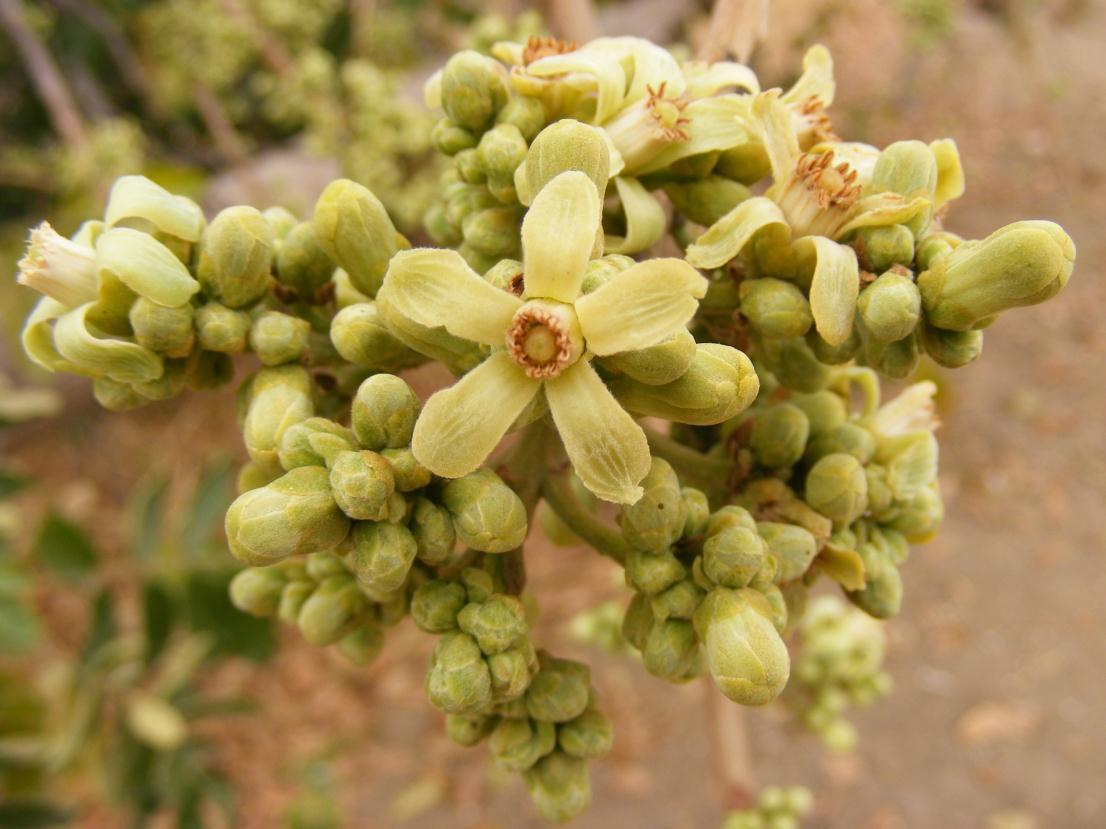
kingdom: Plantae
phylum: Tracheophyta
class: Magnoliopsida
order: Sapindales
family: Meliaceae
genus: Trichilia
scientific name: Trichilia emetica
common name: Christmas-bells
